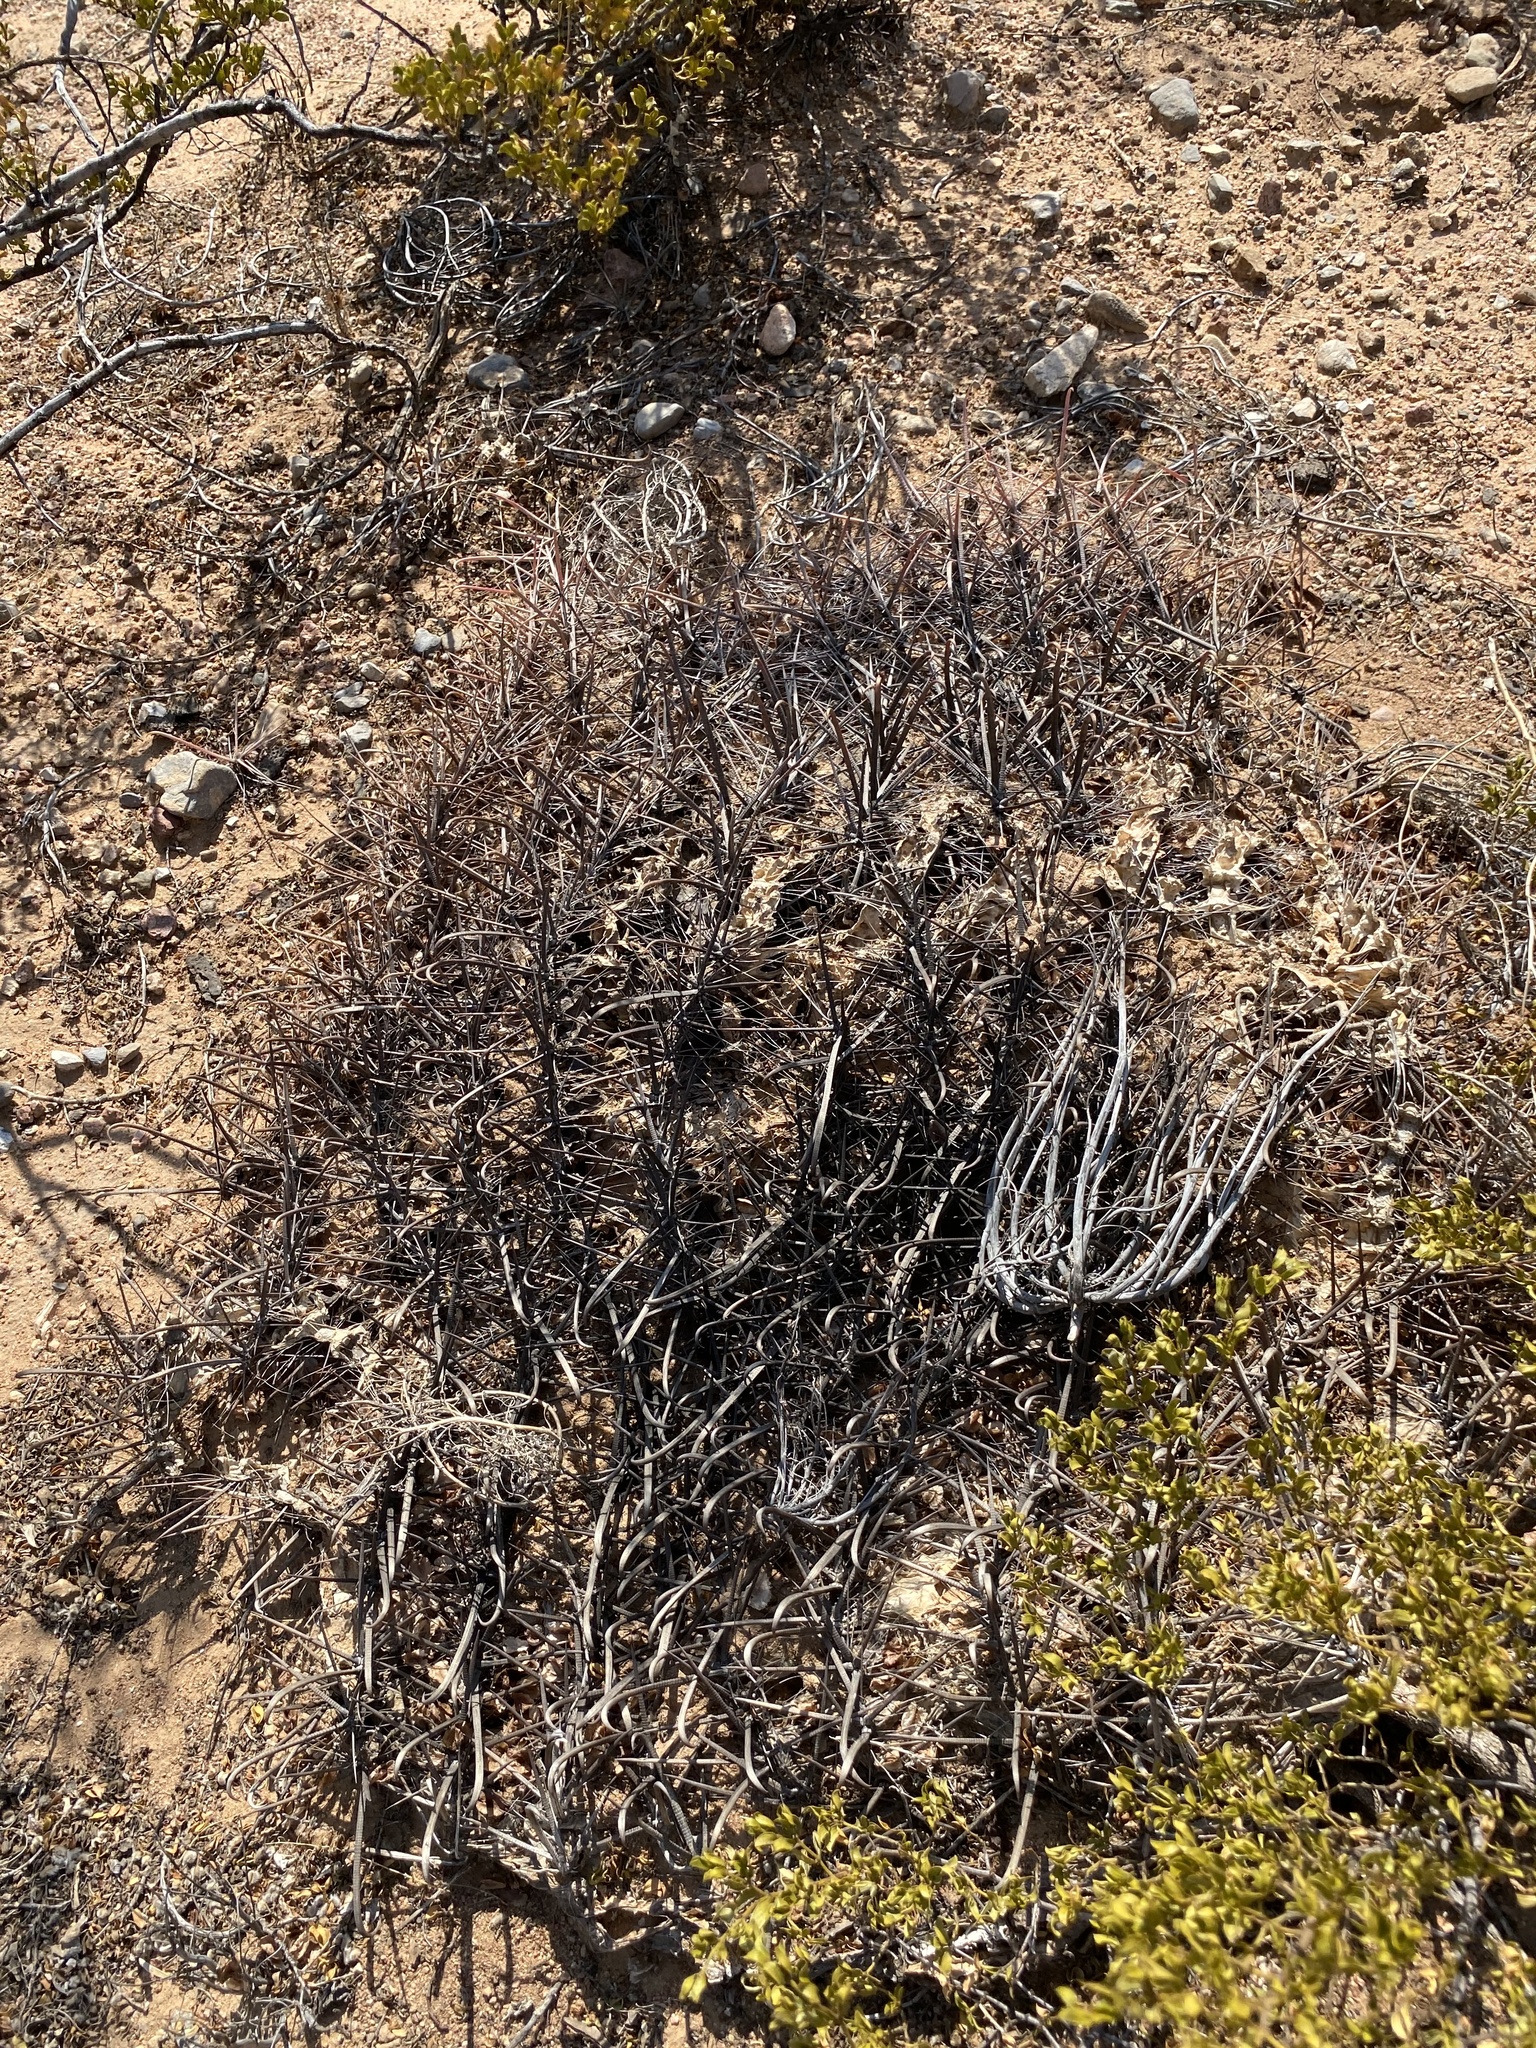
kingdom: Plantae
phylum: Tracheophyta
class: Magnoliopsida
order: Caryophyllales
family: Cactaceae
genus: Ferocactus
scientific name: Ferocactus wislizeni
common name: Candy barrel cactus
